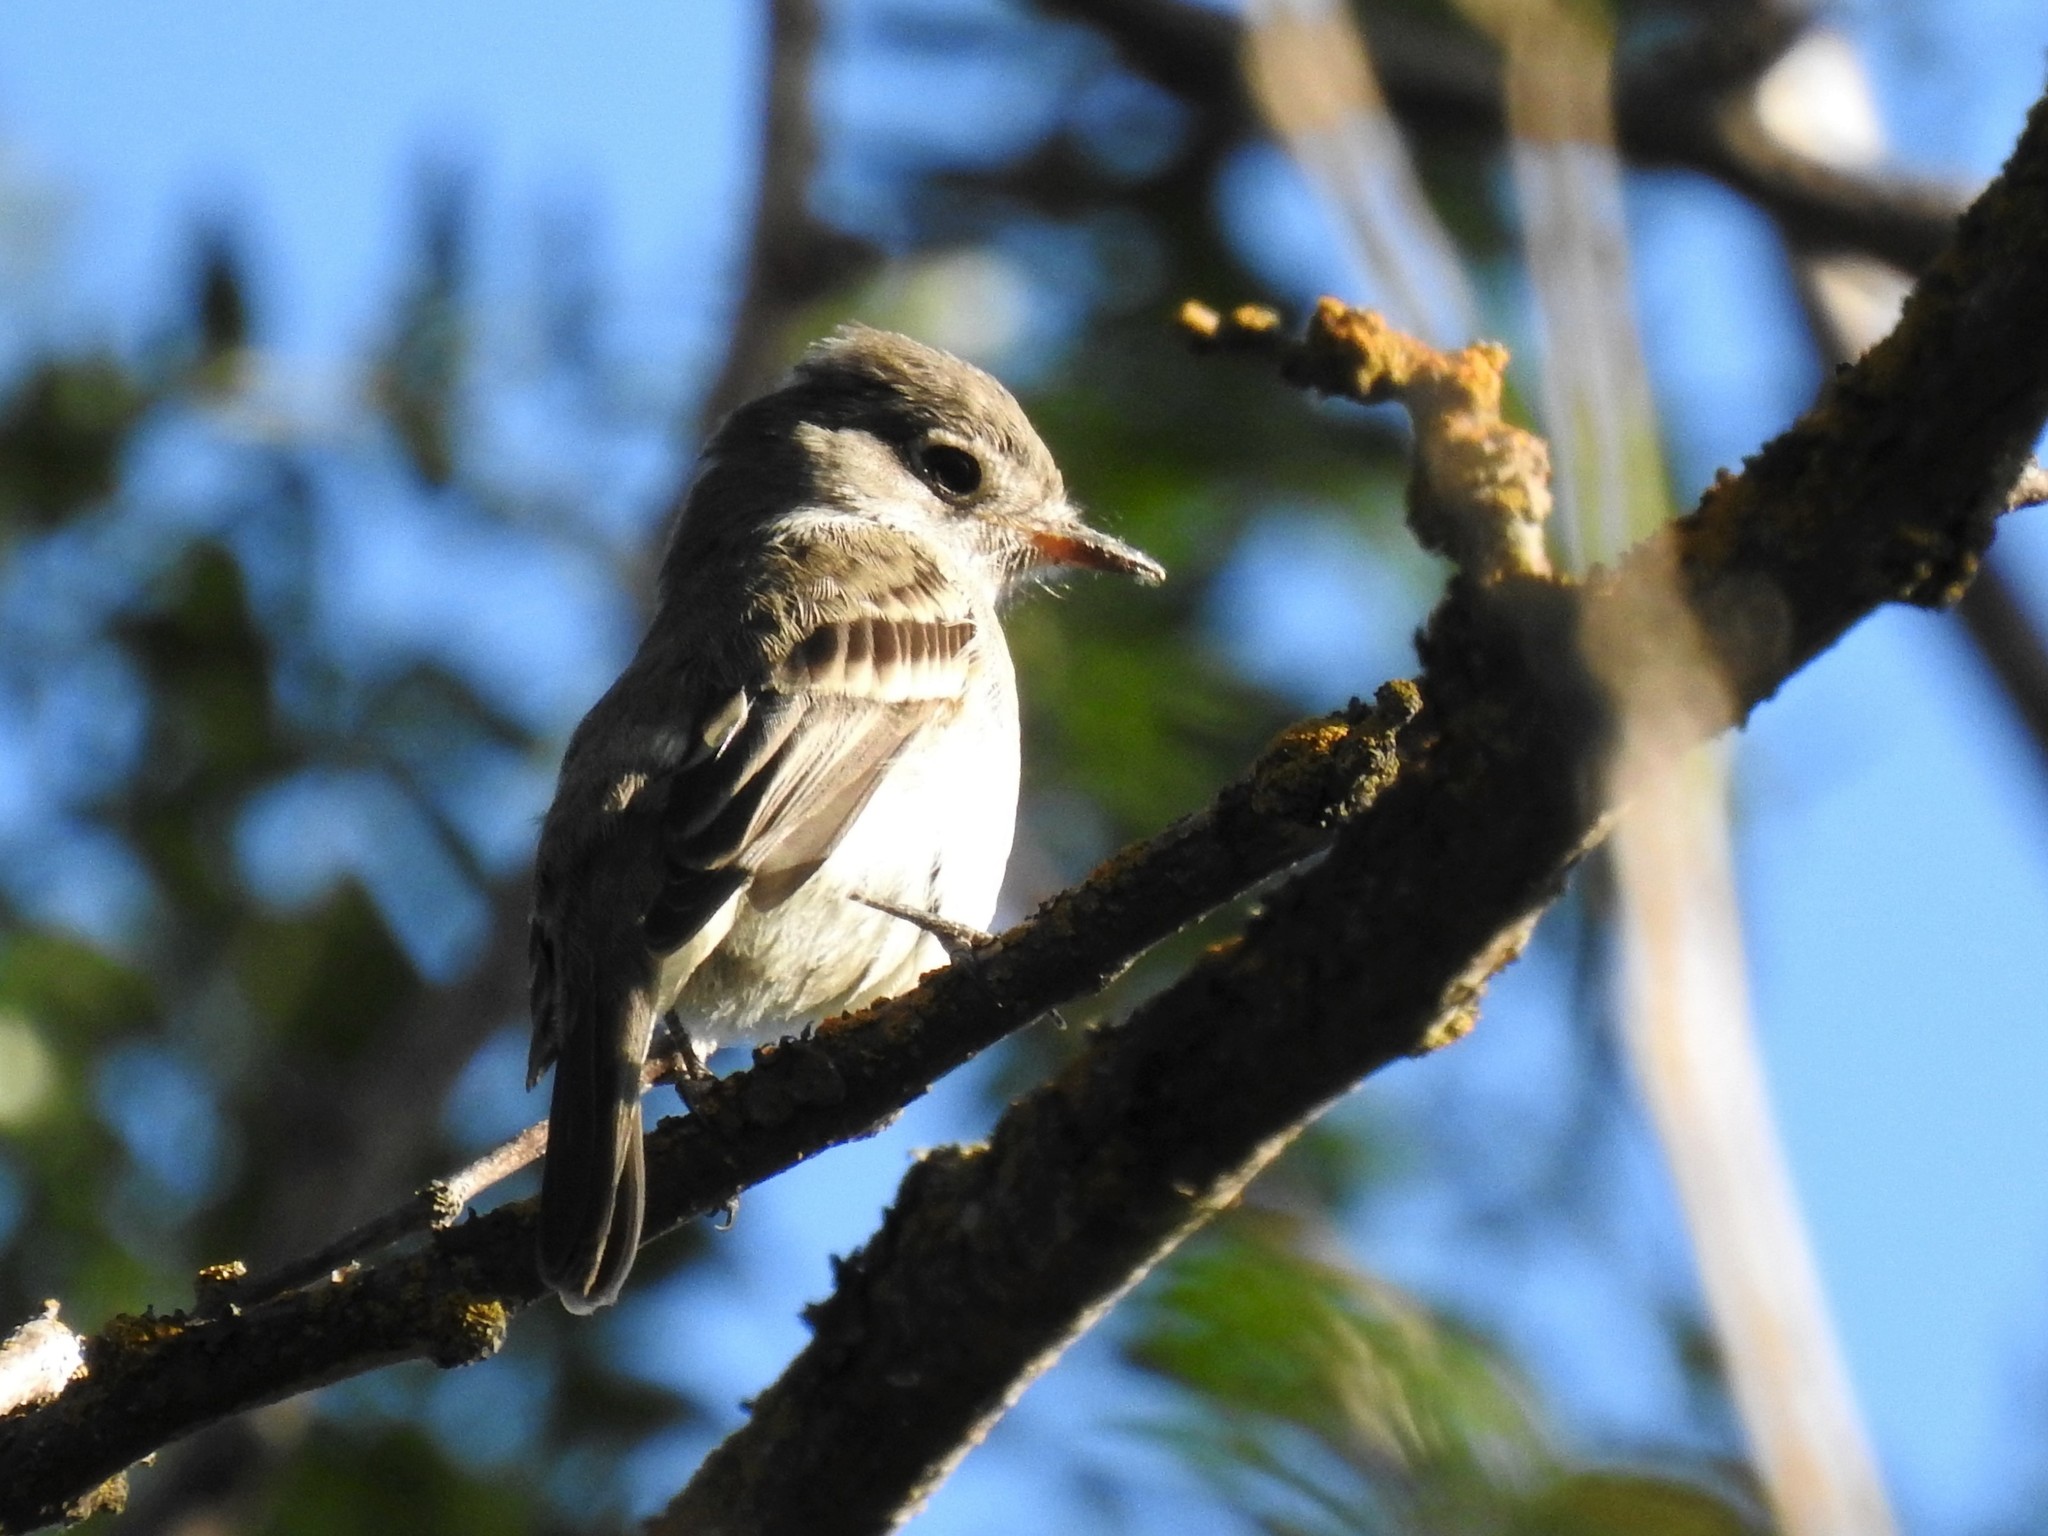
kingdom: Animalia
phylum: Chordata
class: Aves
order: Passeriformes
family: Tyrannidae
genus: Empidonax
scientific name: Empidonax oberholseri
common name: Dusky flycatcher
